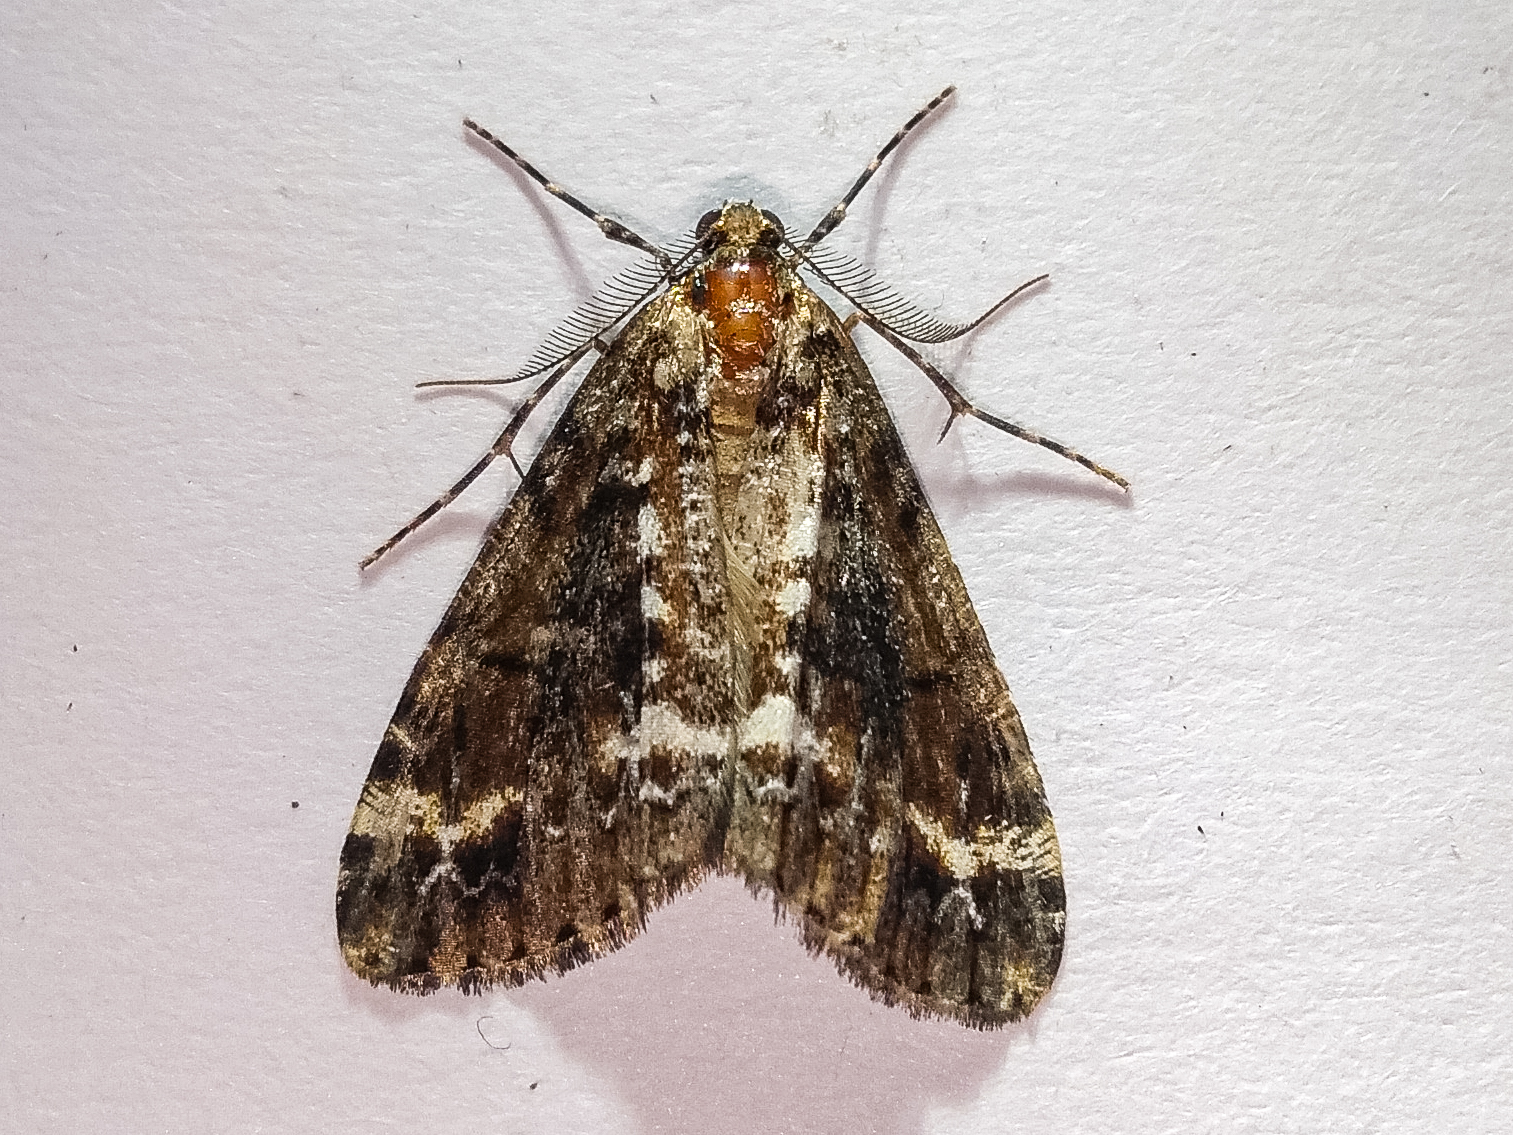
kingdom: Animalia
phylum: Arthropoda
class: Insecta
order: Lepidoptera
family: Geometridae
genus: Pseudocoremia
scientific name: Pseudocoremia leucelaea
